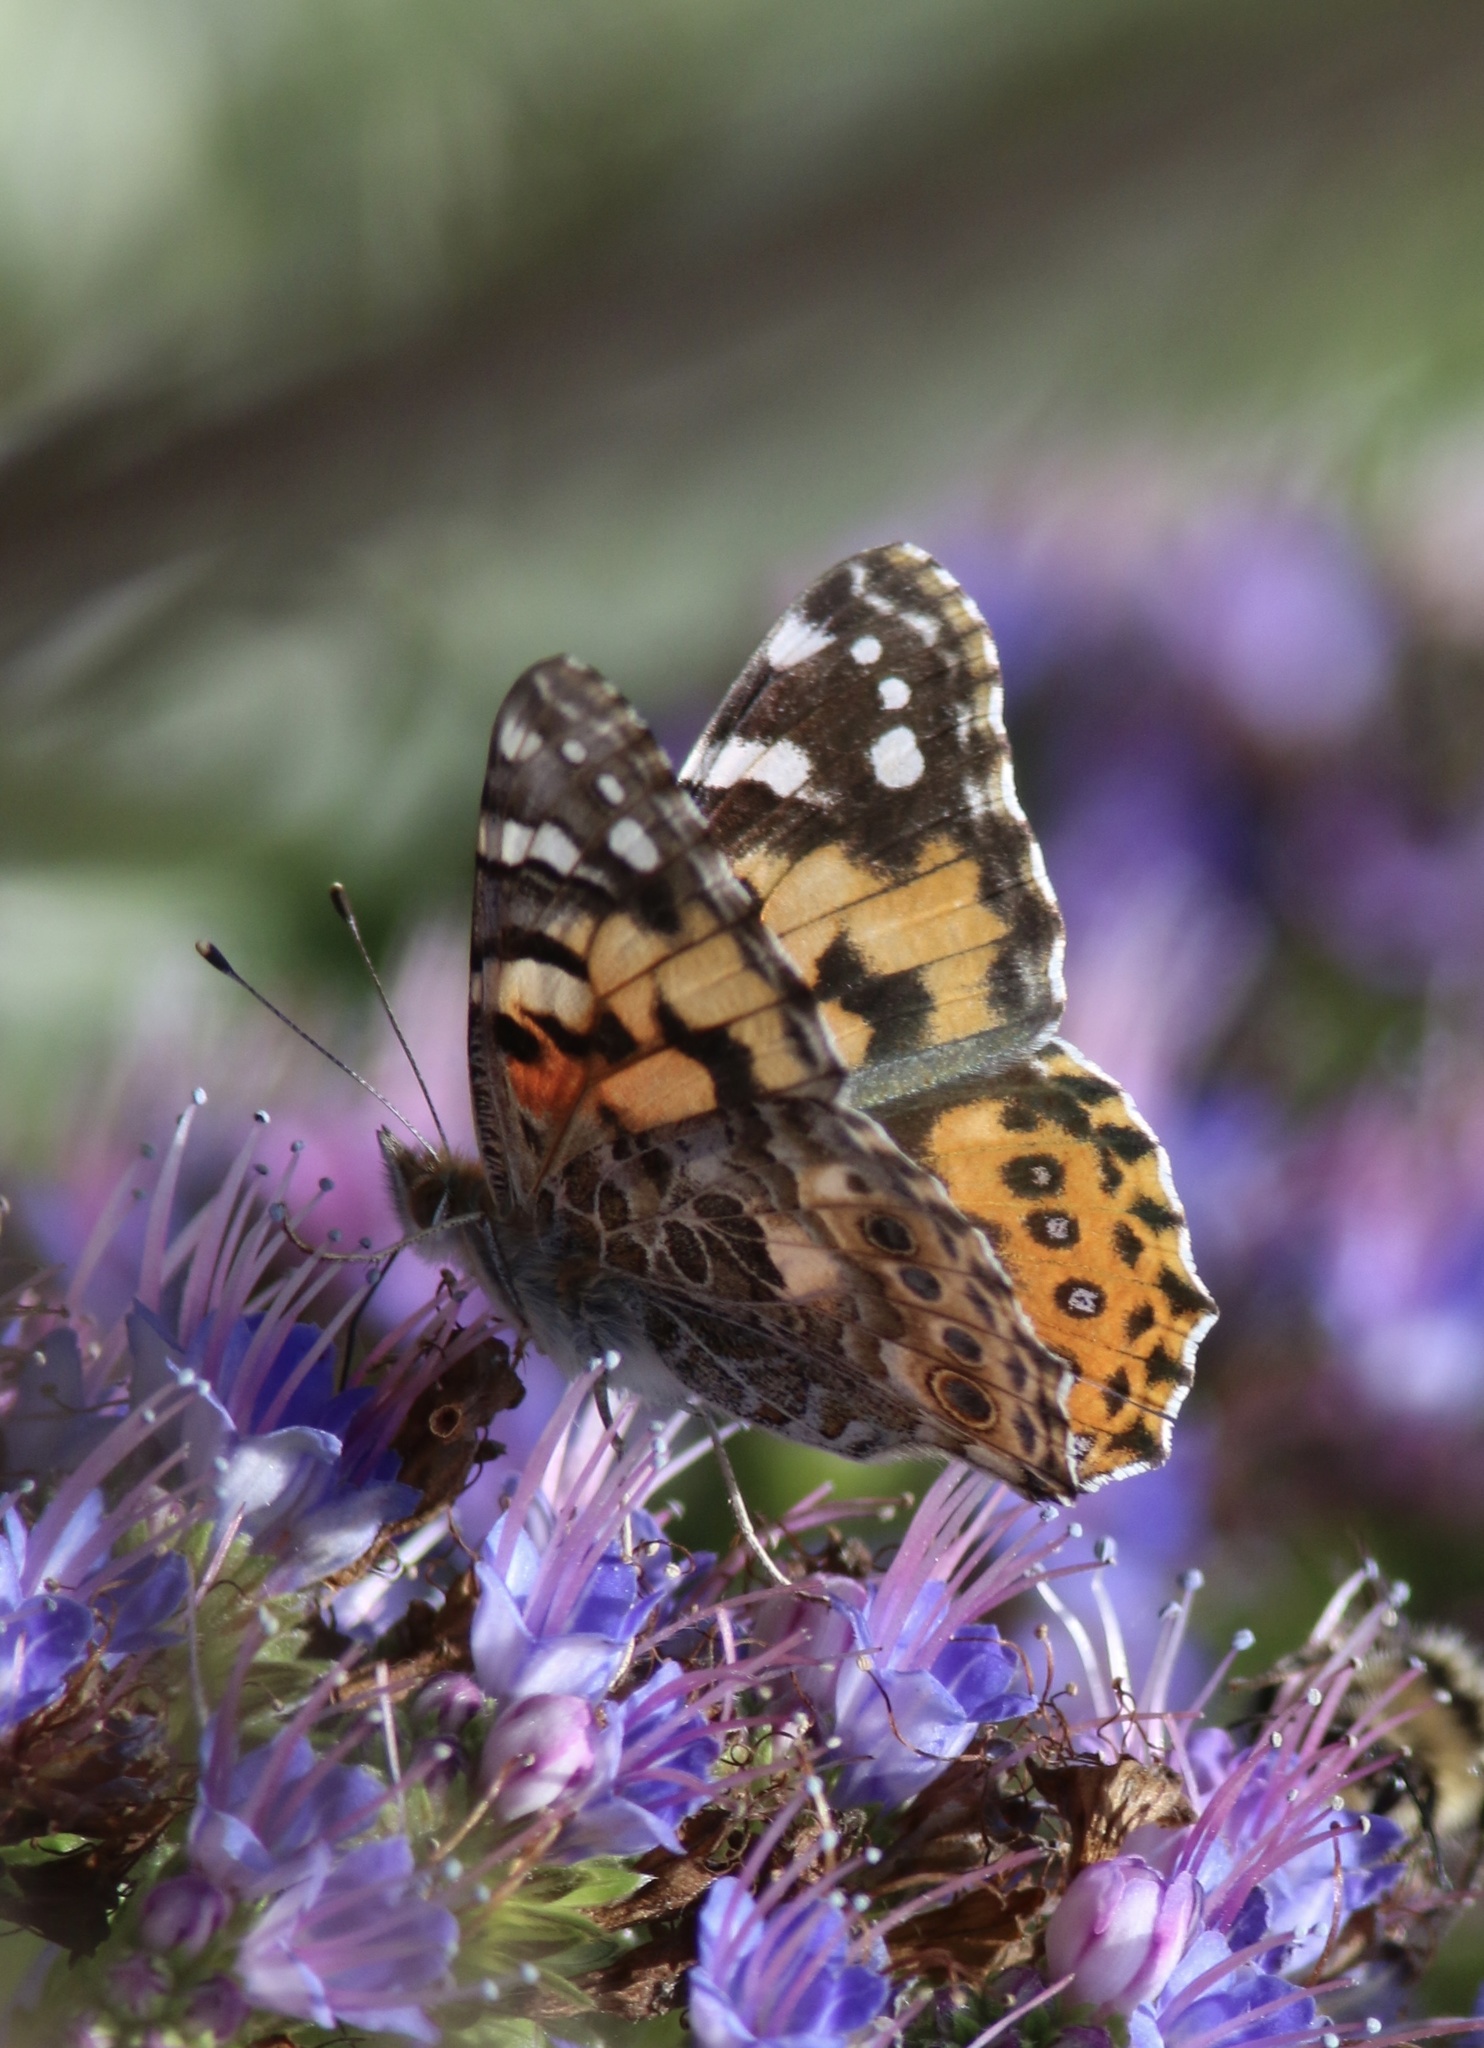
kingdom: Animalia
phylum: Arthropoda
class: Insecta
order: Lepidoptera
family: Nymphalidae
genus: Vanessa
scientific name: Vanessa cardui
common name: Painted lady
